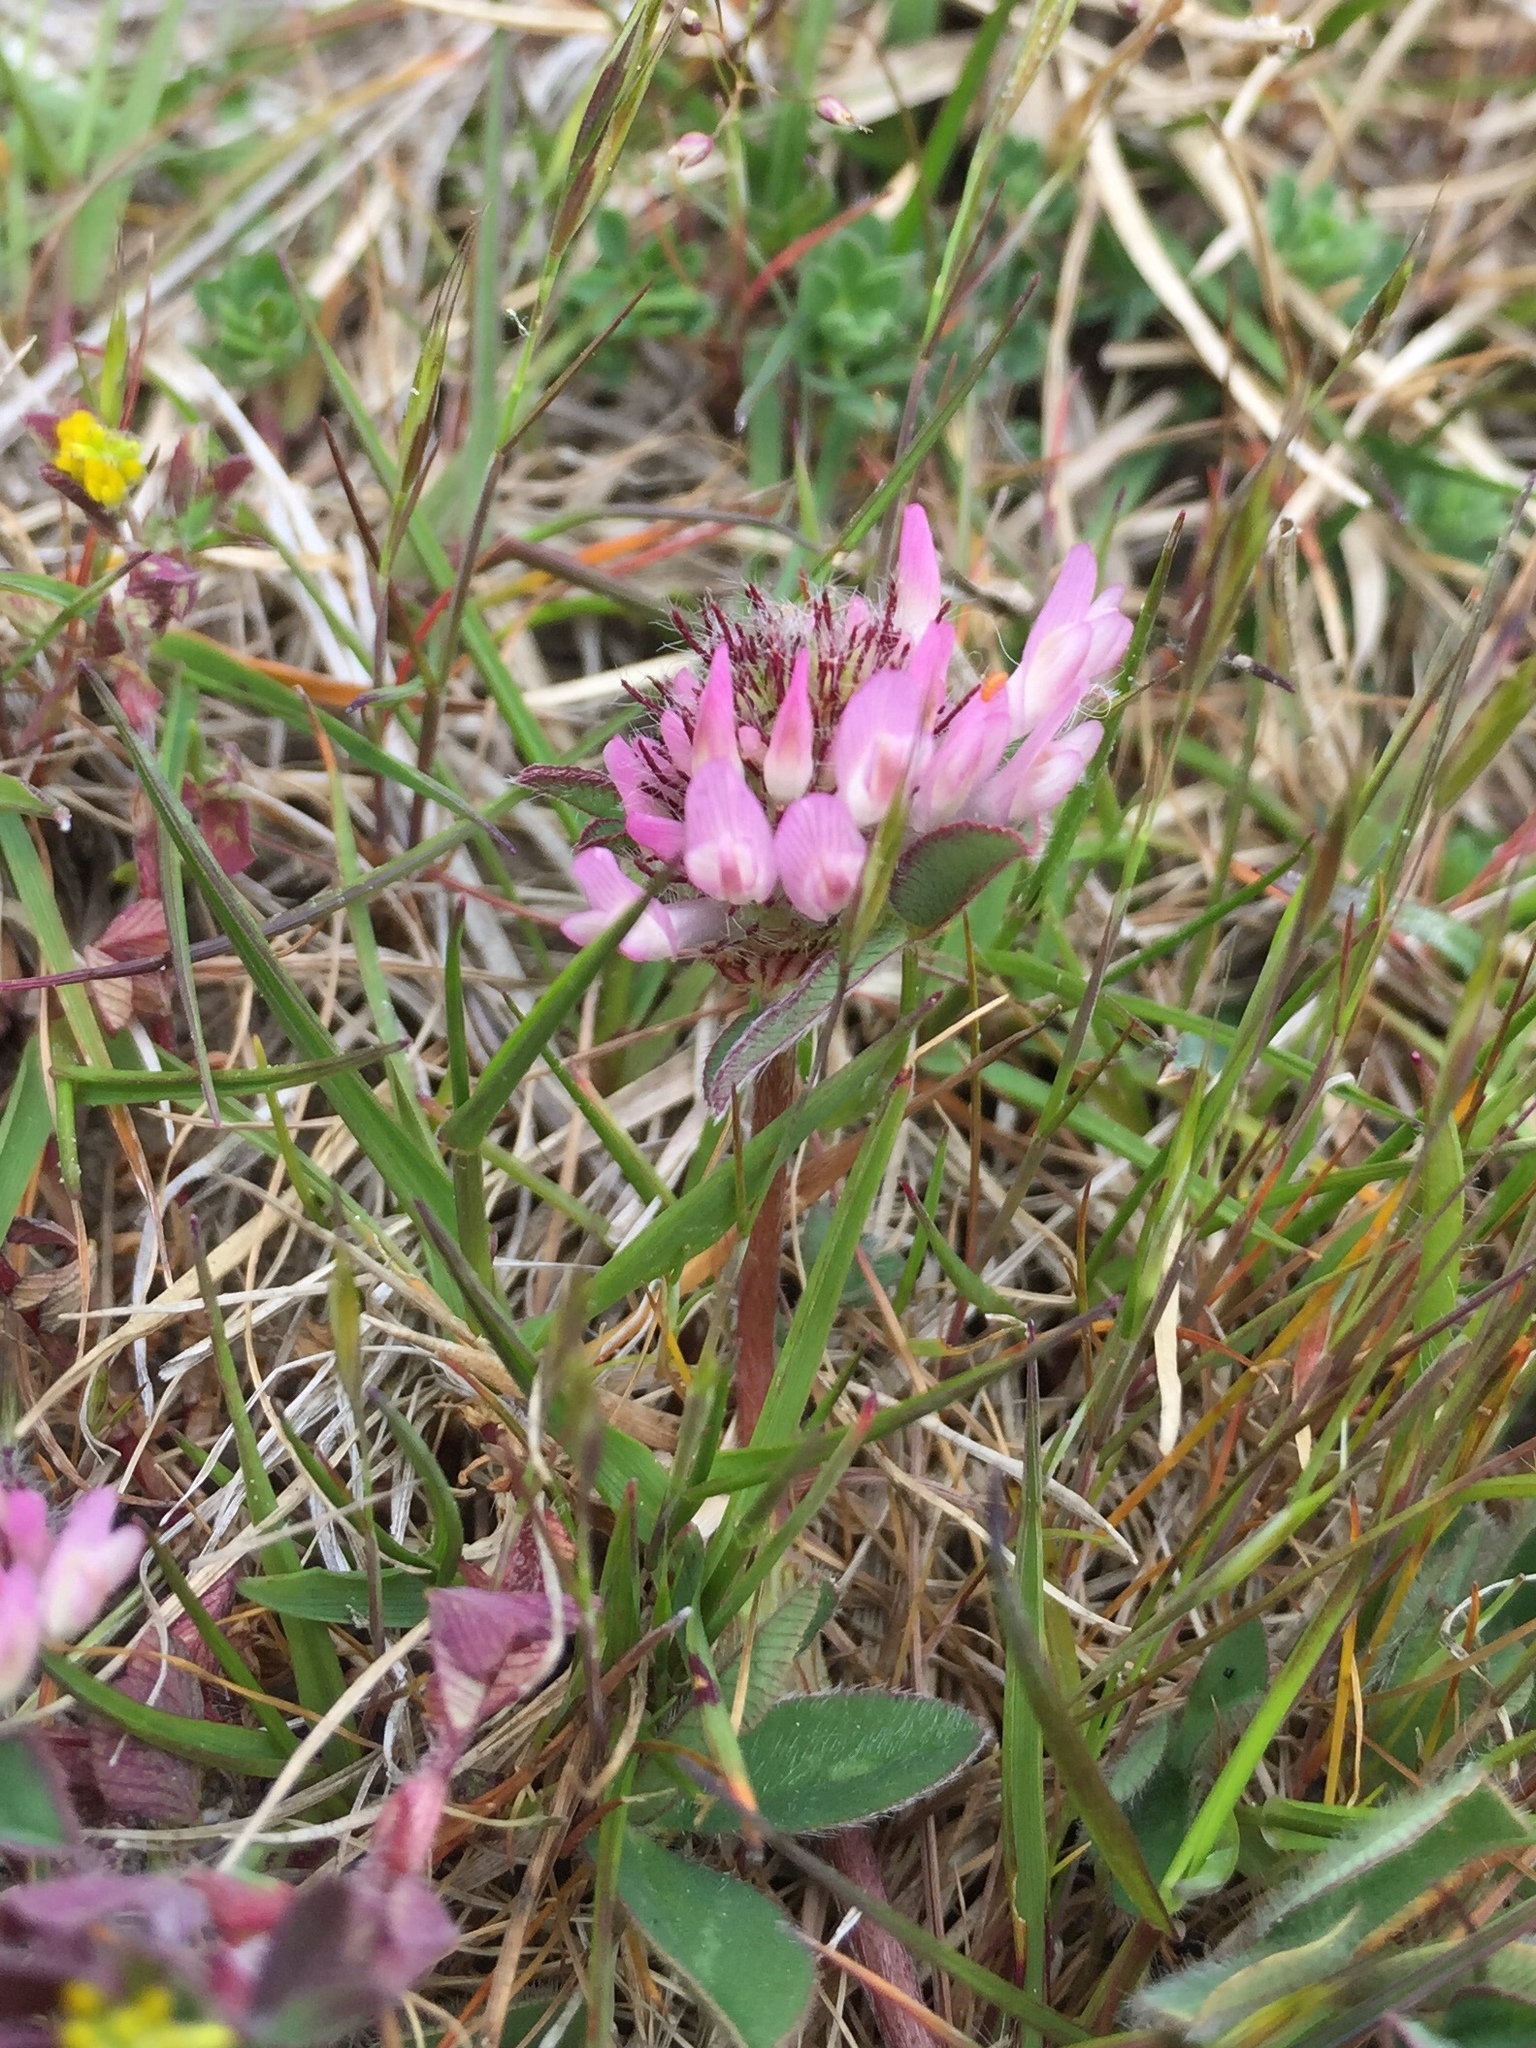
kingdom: Plantae
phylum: Tracheophyta
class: Magnoliopsida
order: Fabales
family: Fabaceae
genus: Trifolium
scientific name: Trifolium pratense
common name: Red clover
